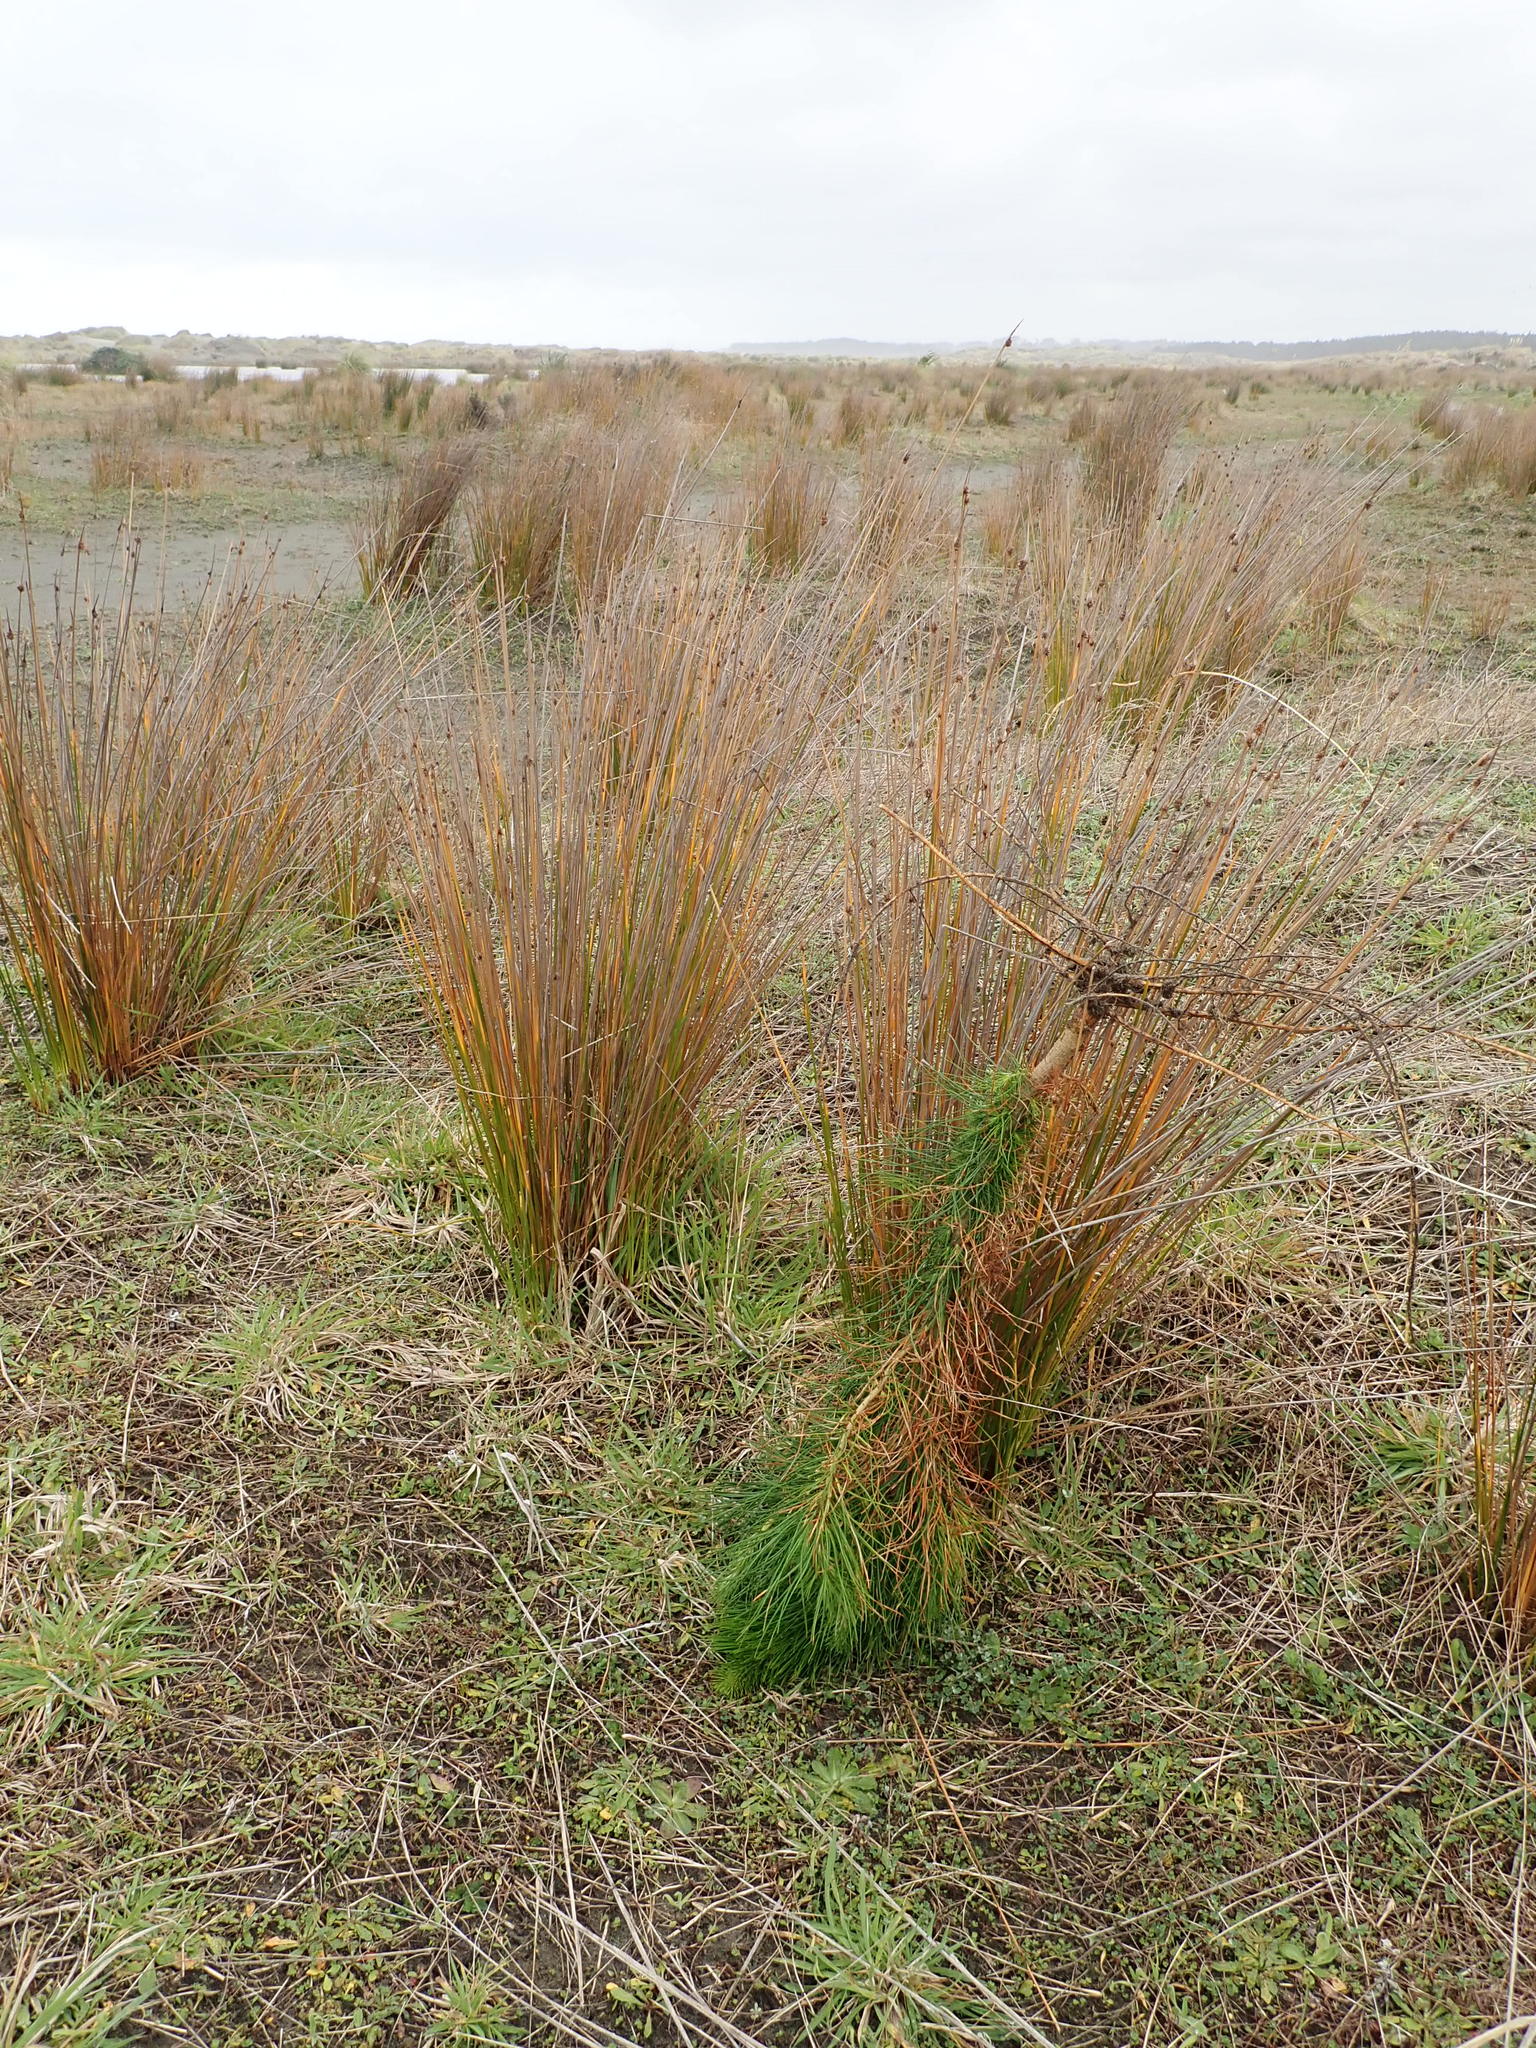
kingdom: Plantae
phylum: Tracheophyta
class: Pinopsida
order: Pinales
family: Pinaceae
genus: Pinus
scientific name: Pinus radiata
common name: Monterey pine
